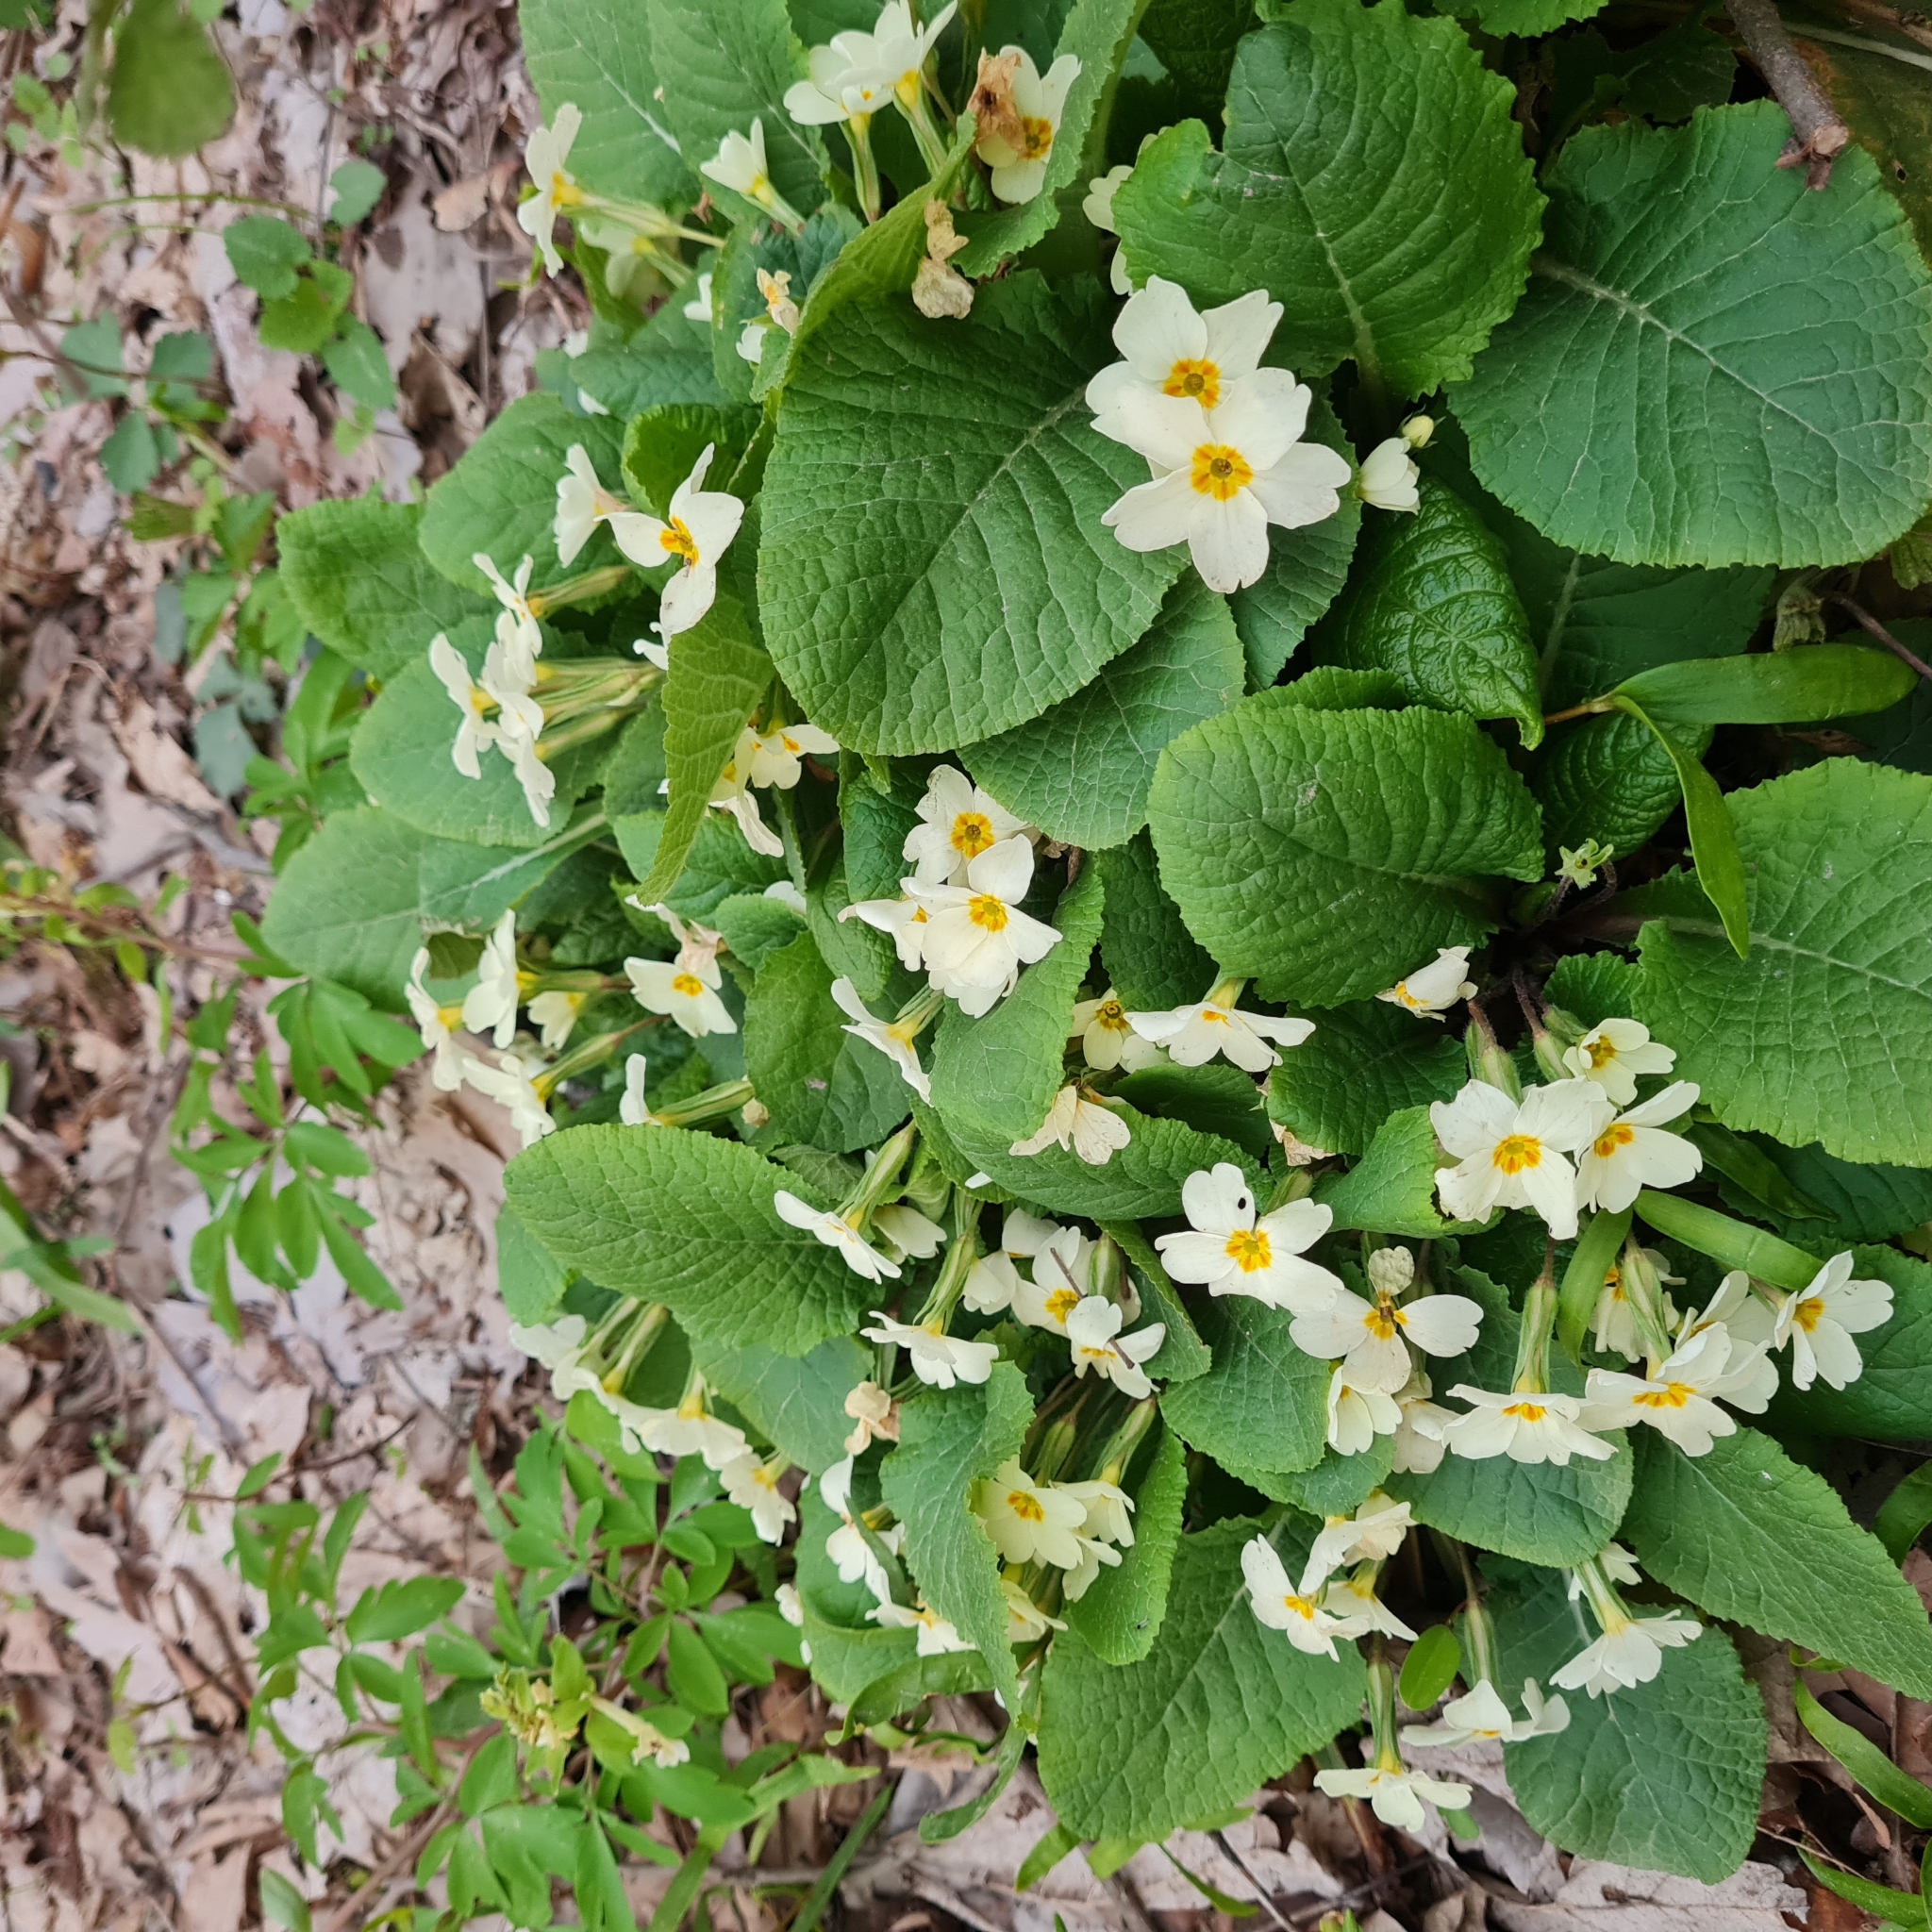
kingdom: Plantae
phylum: Tracheophyta
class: Magnoliopsida
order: Ericales
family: Primulaceae
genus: Primula
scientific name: Primula vulgaris
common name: Primrose
